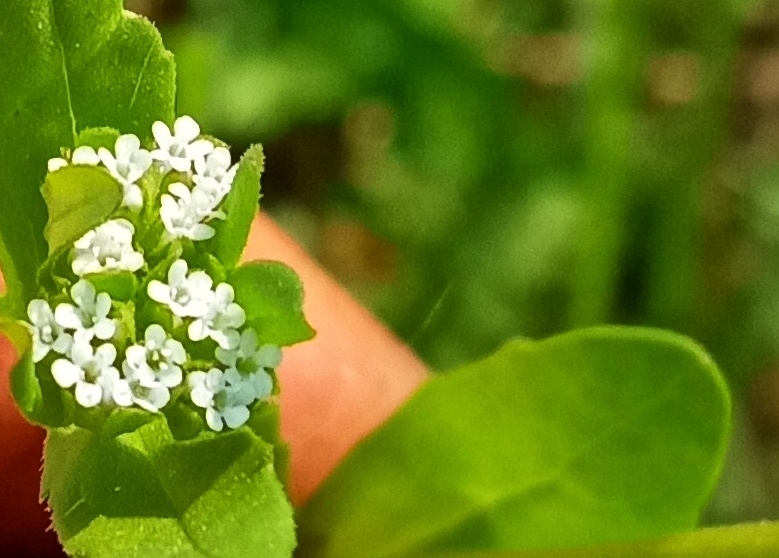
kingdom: Plantae
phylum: Tracheophyta
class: Magnoliopsida
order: Dipsacales
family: Caprifoliaceae
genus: Valerianella
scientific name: Valerianella radiata
